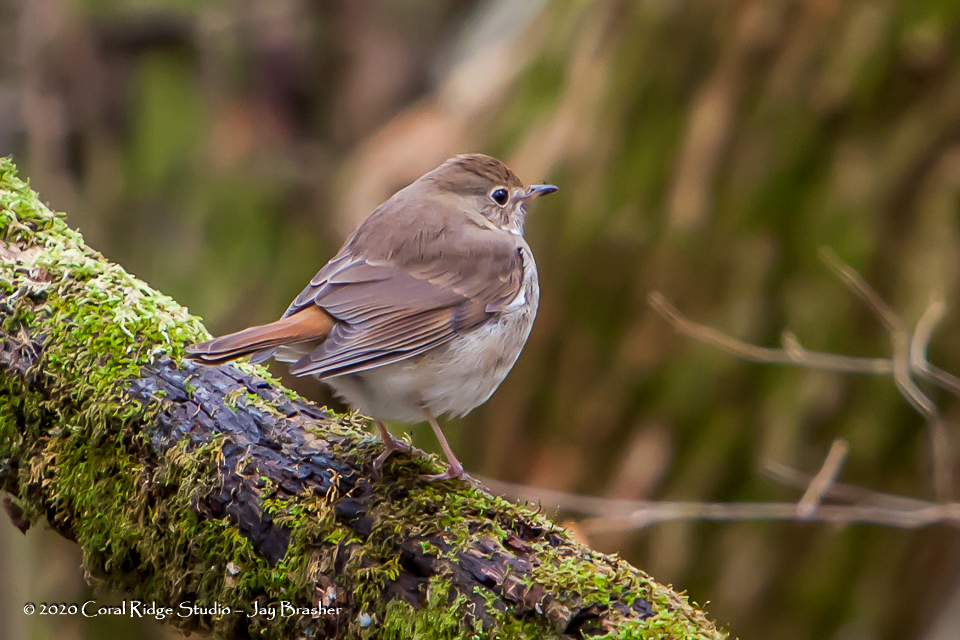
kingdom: Animalia
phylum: Chordata
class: Aves
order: Passeriformes
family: Turdidae
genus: Catharus
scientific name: Catharus guttatus
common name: Hermit thrush
